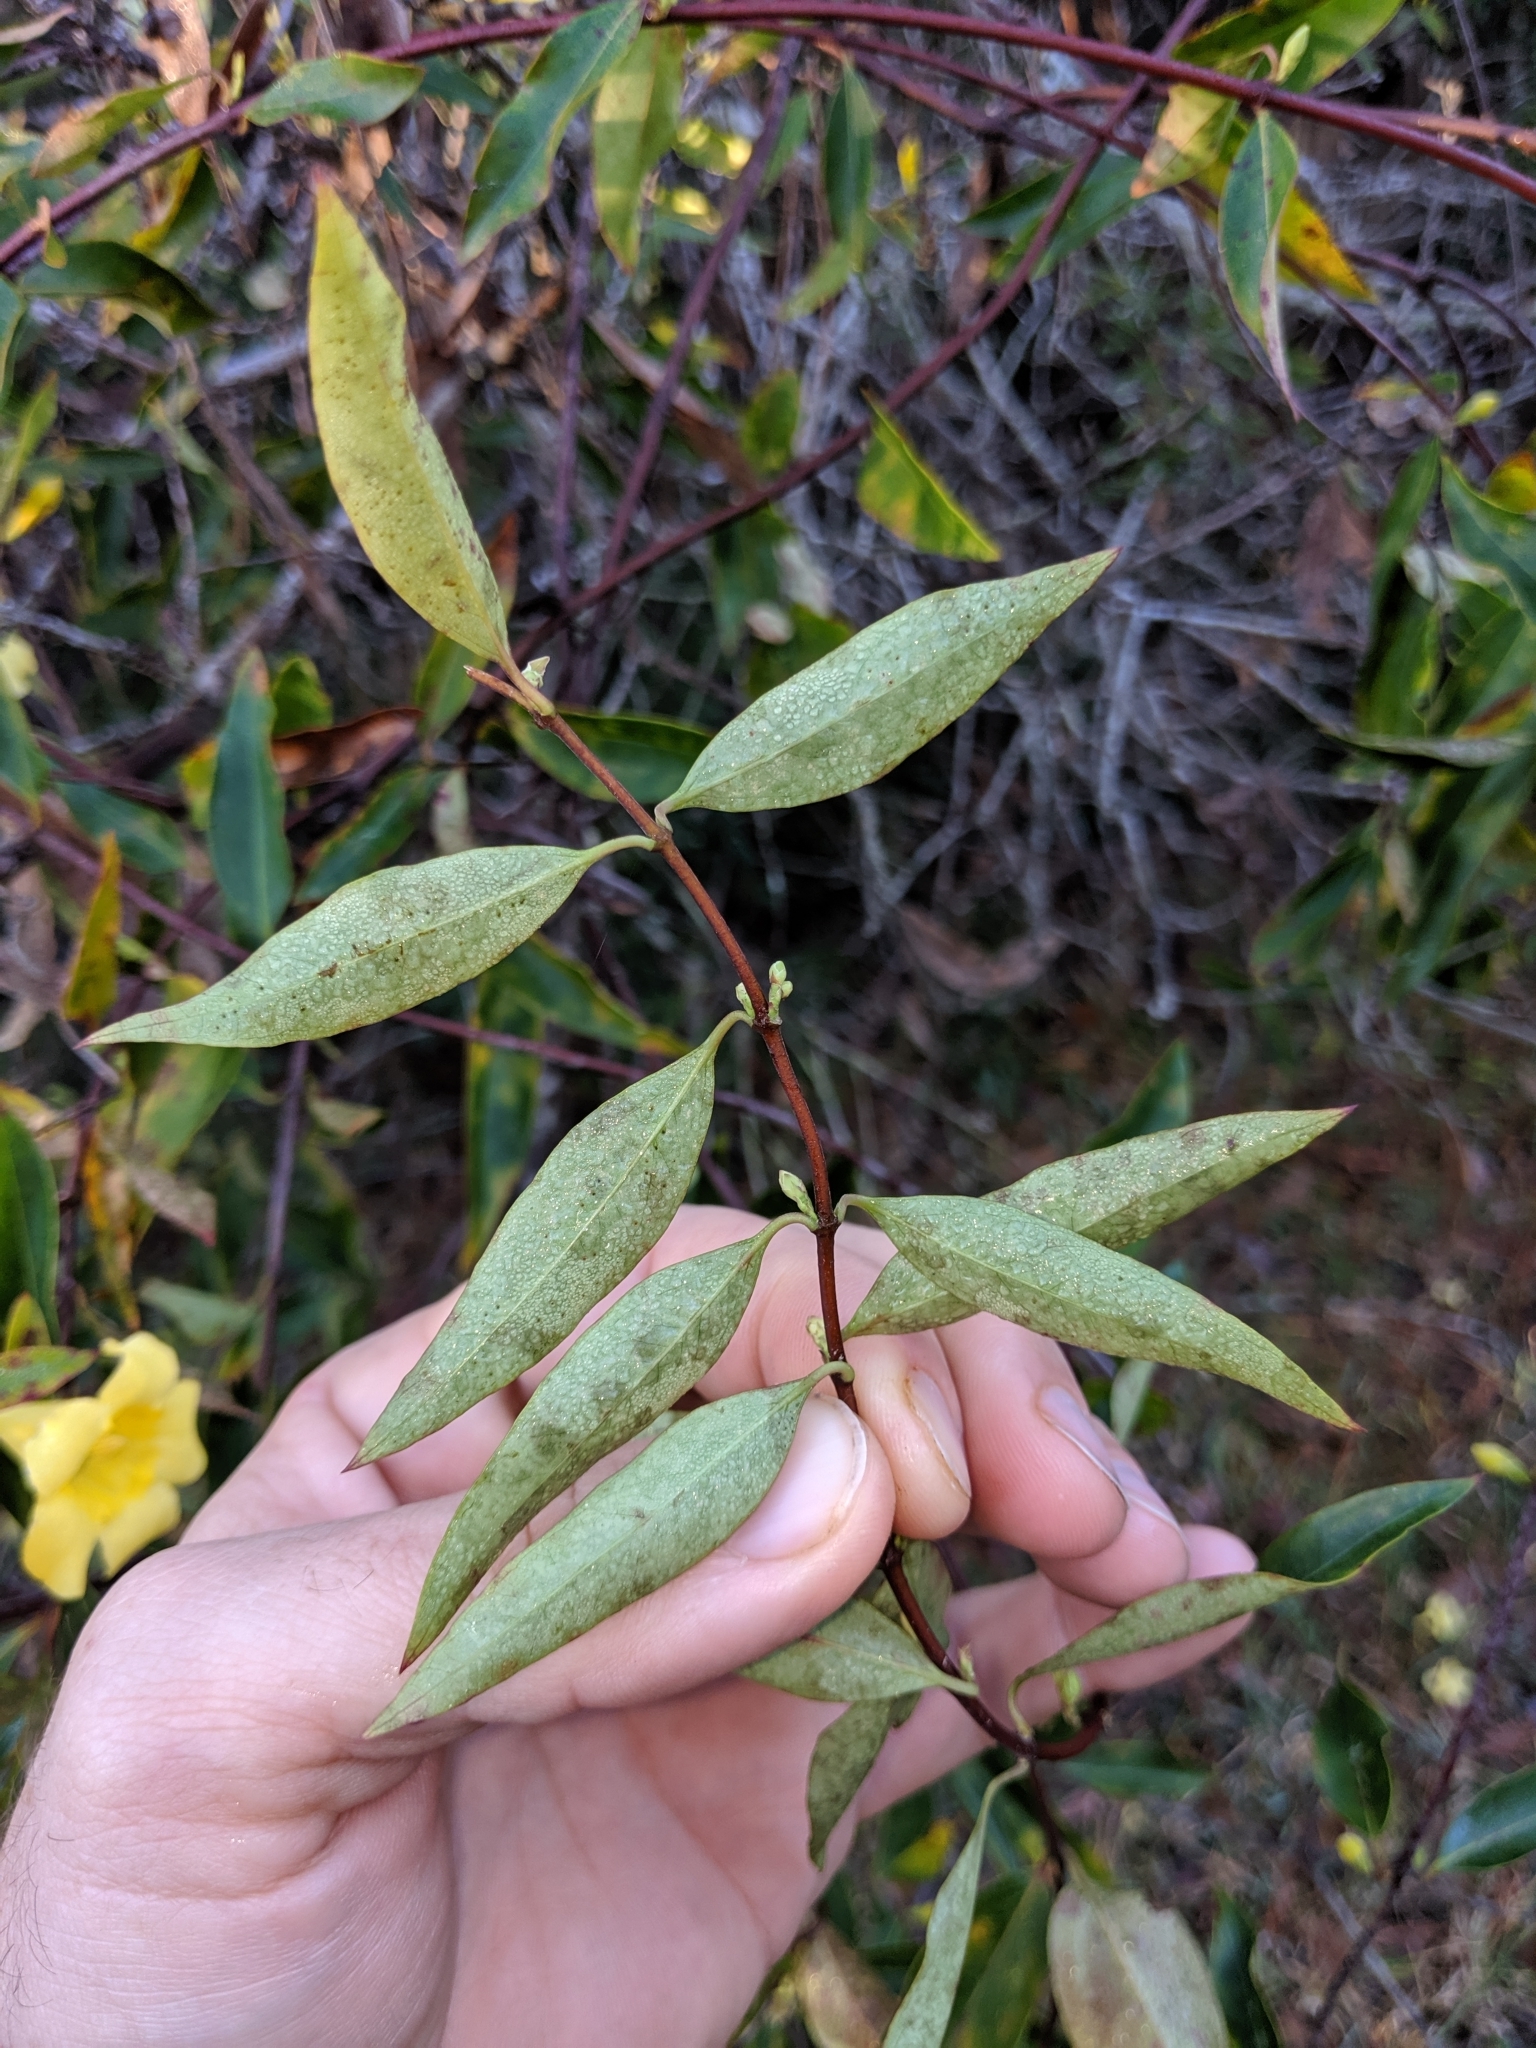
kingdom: Plantae
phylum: Tracheophyta
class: Magnoliopsida
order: Gentianales
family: Gelsemiaceae
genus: Gelsemium
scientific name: Gelsemium sempervirens
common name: Carolina-jasmine
